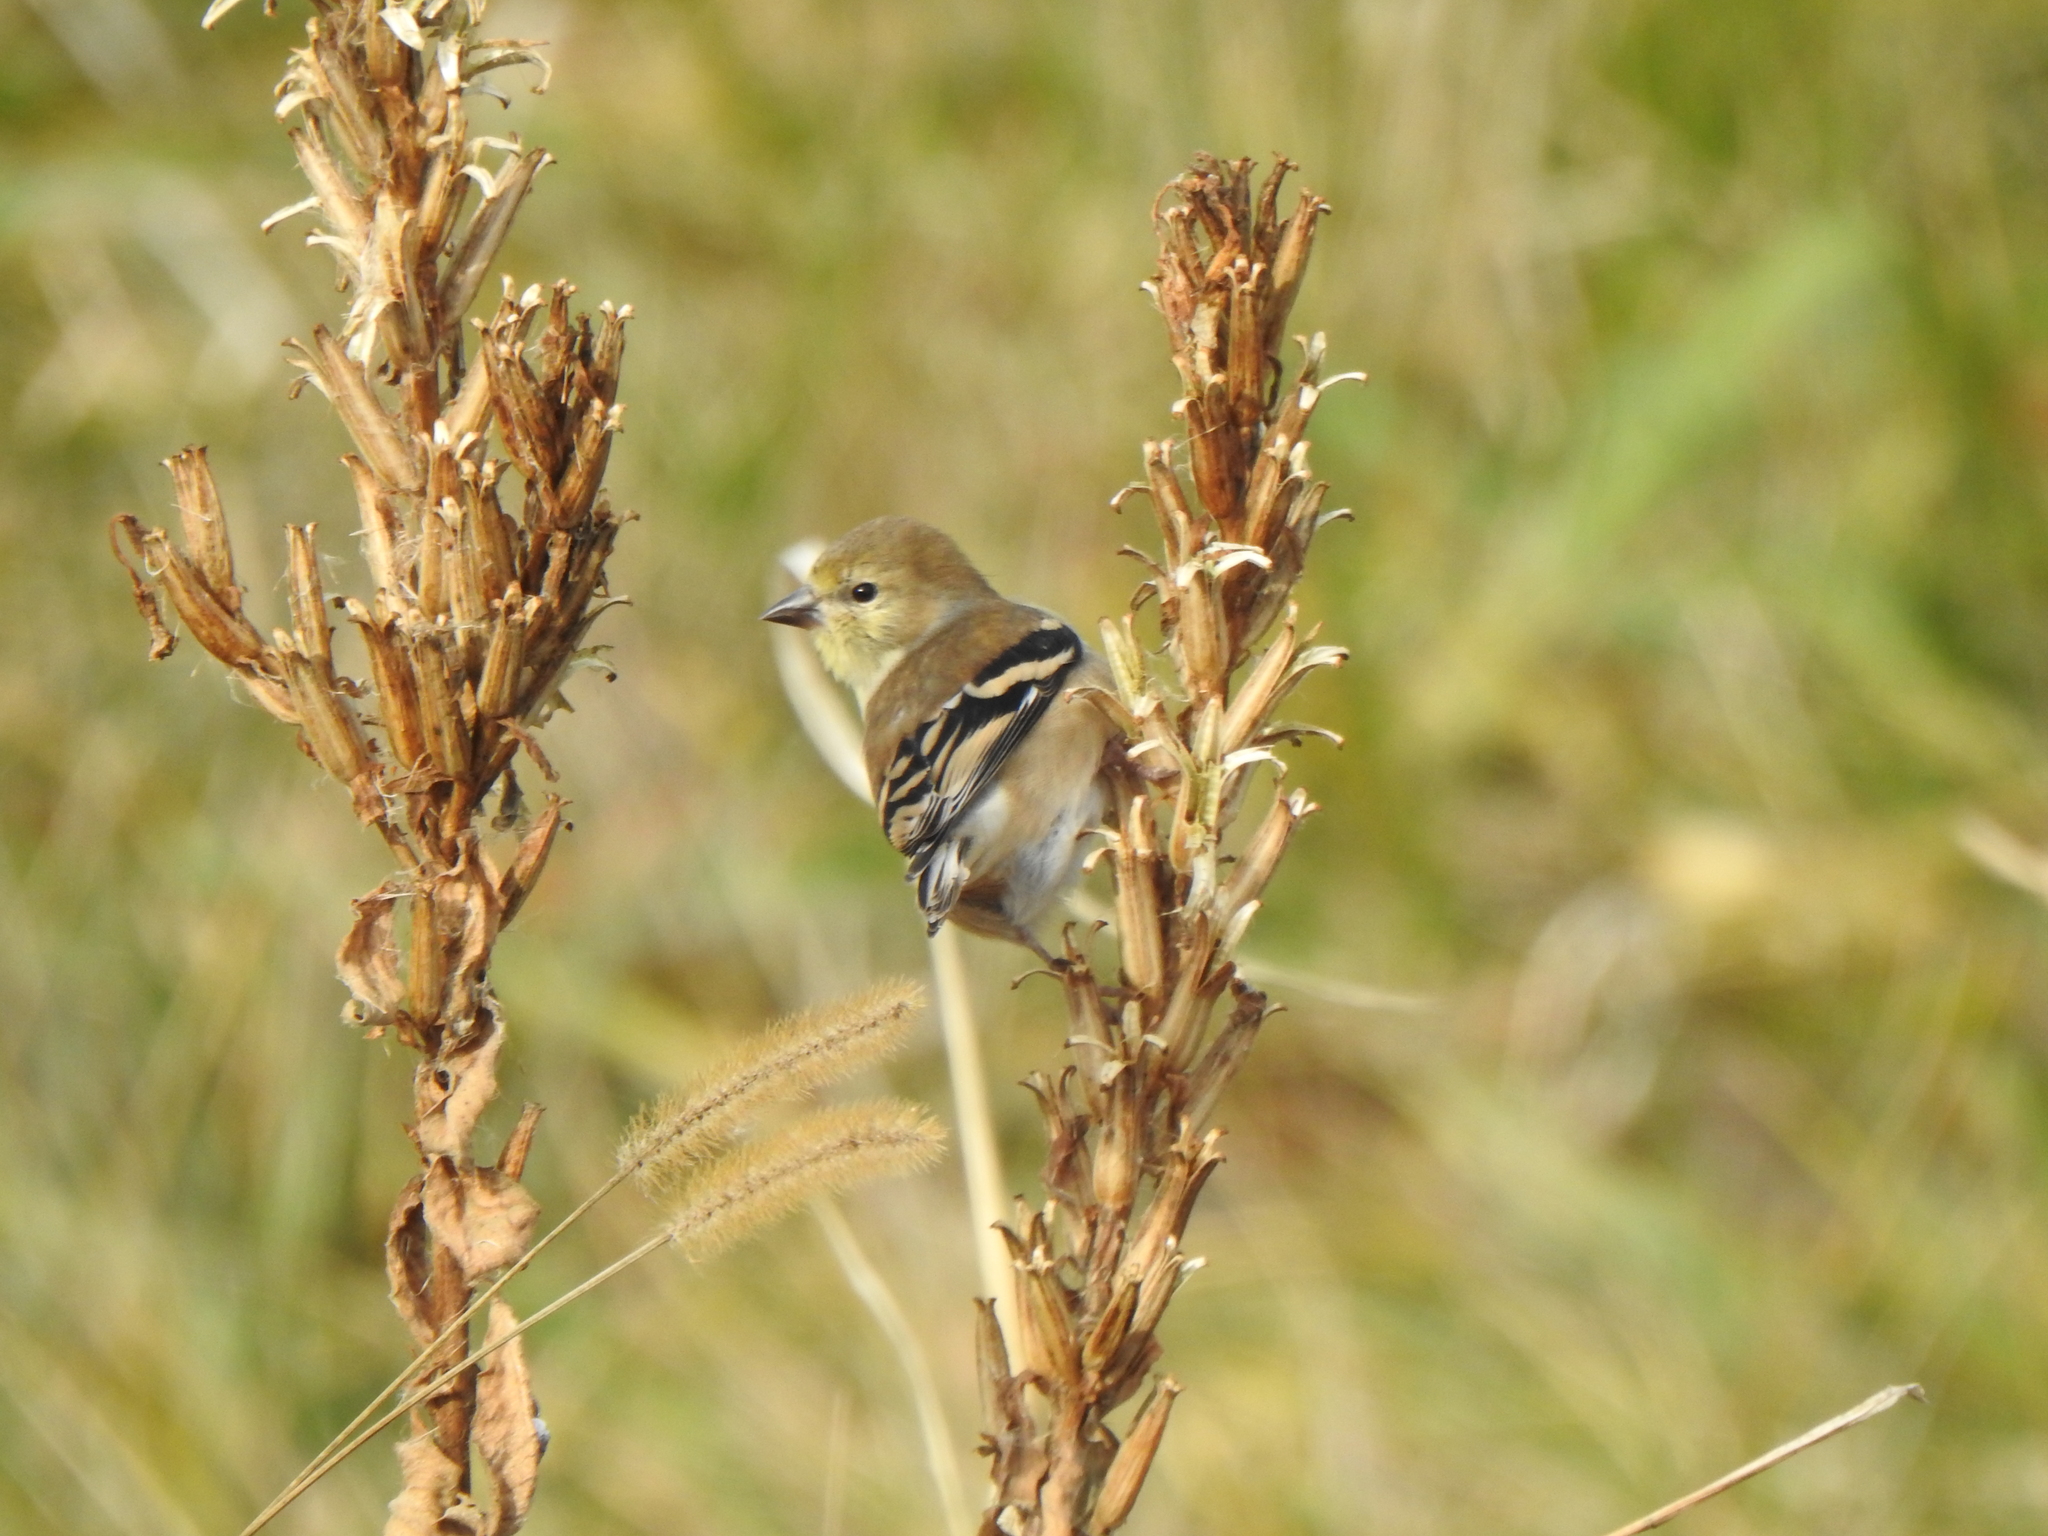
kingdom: Animalia
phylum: Chordata
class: Aves
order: Passeriformes
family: Fringillidae
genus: Spinus
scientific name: Spinus tristis
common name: American goldfinch
